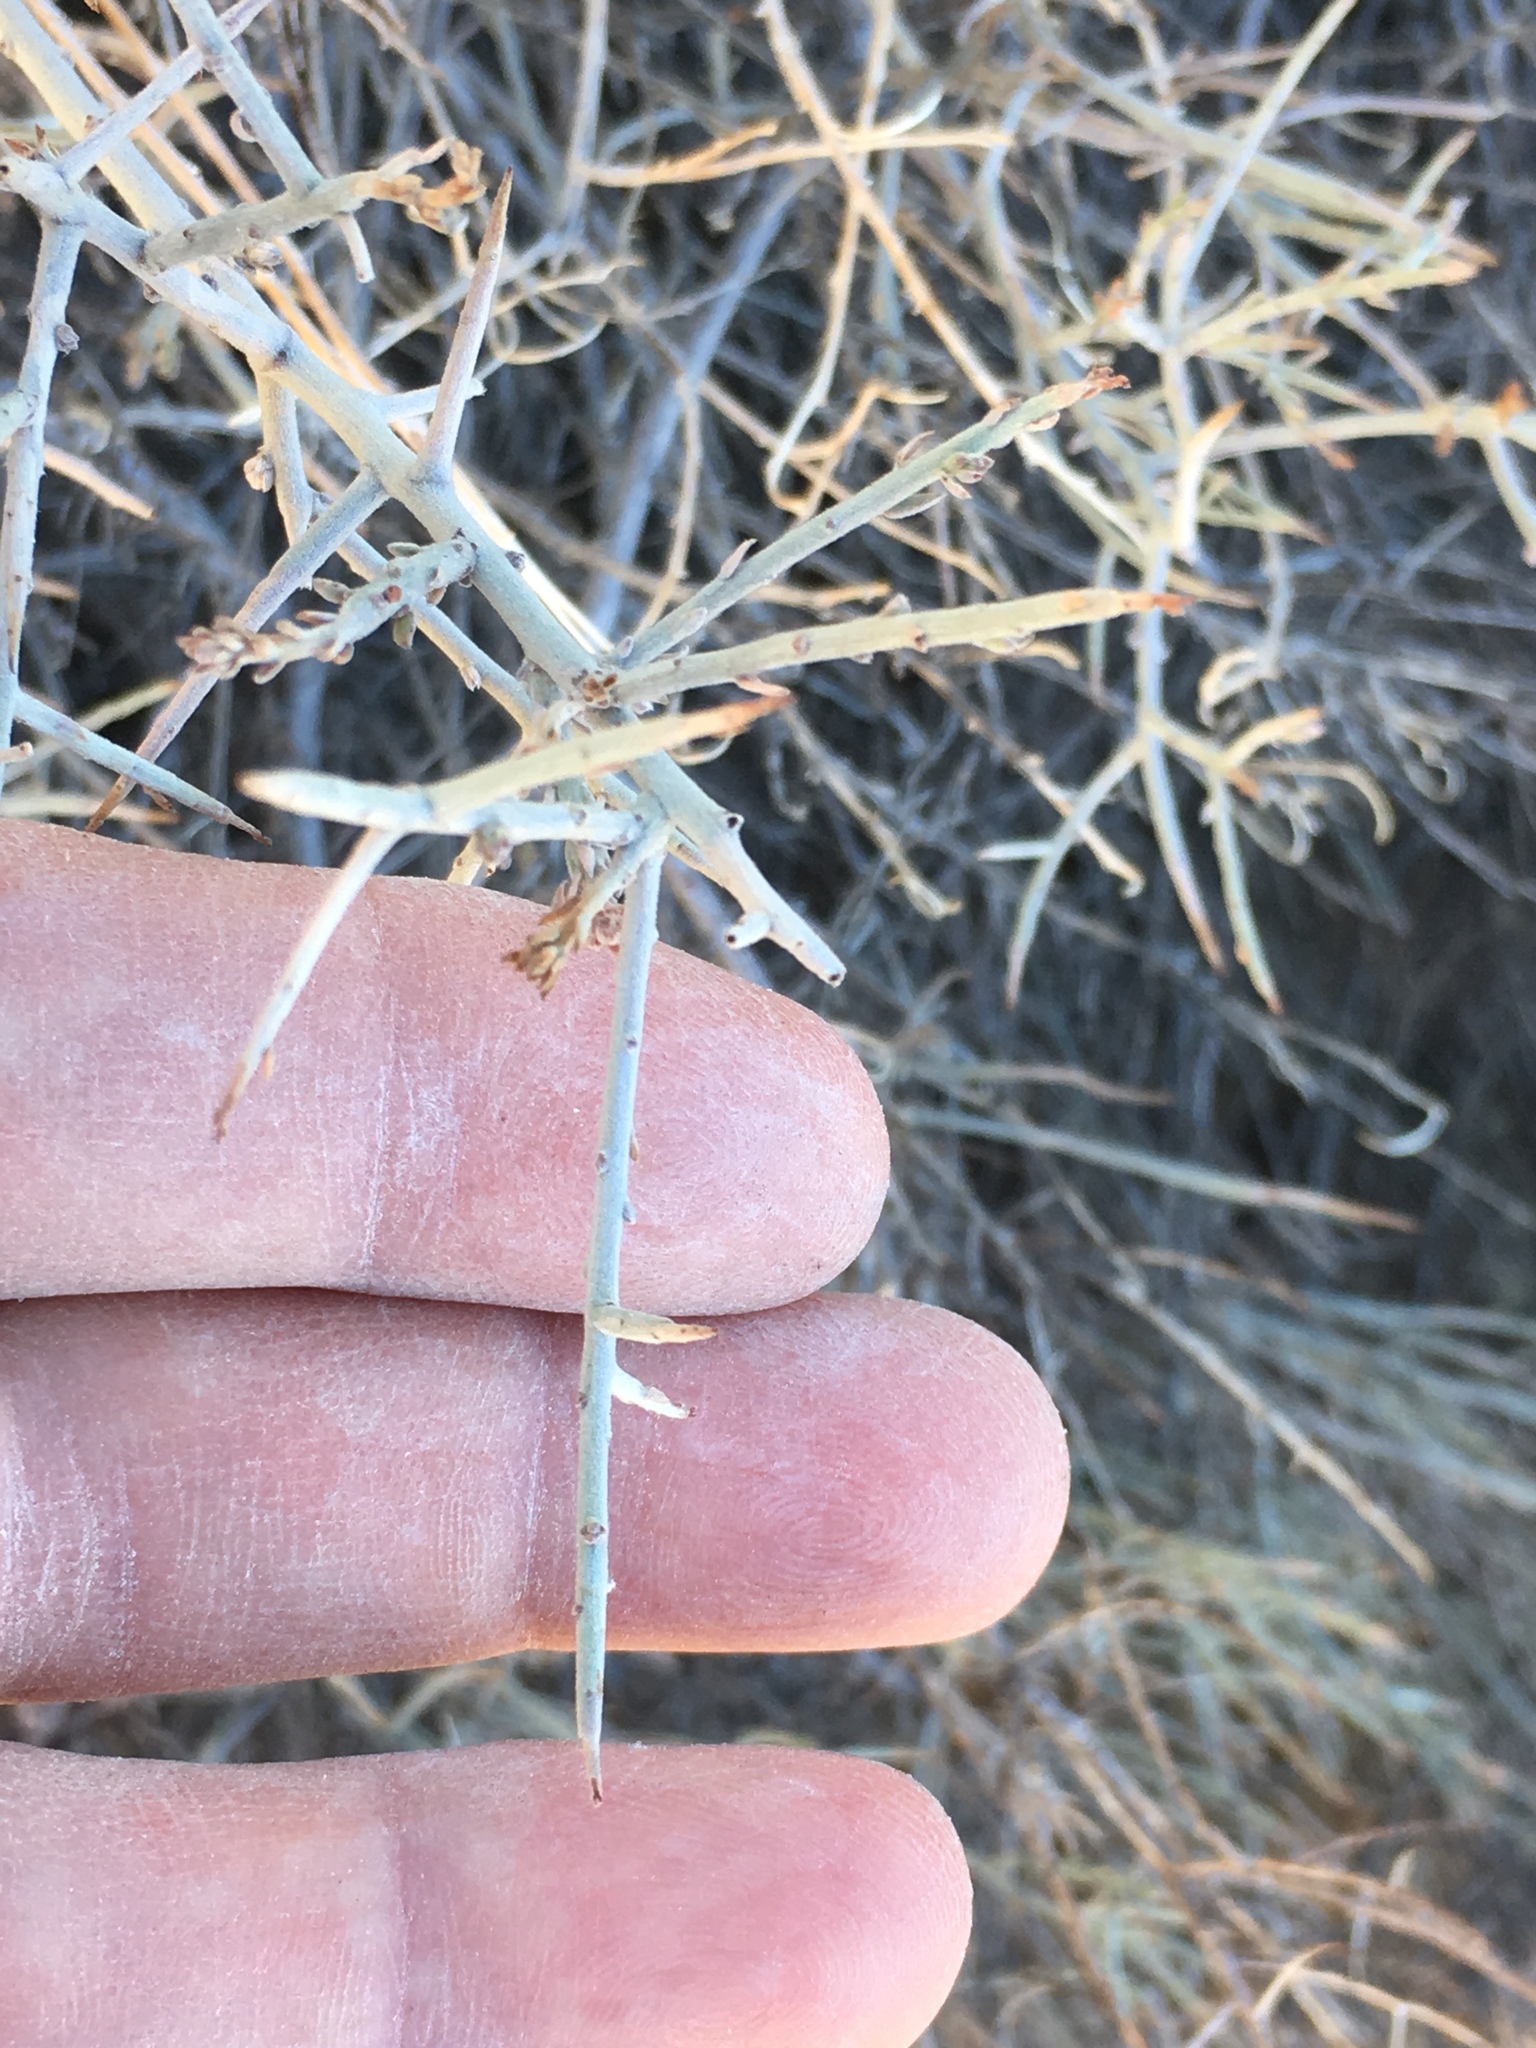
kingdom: Plantae
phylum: Tracheophyta
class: Magnoliopsida
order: Zygophyllales
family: Krameriaceae
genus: Krameria
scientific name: Krameria bicolor
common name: White ratany
